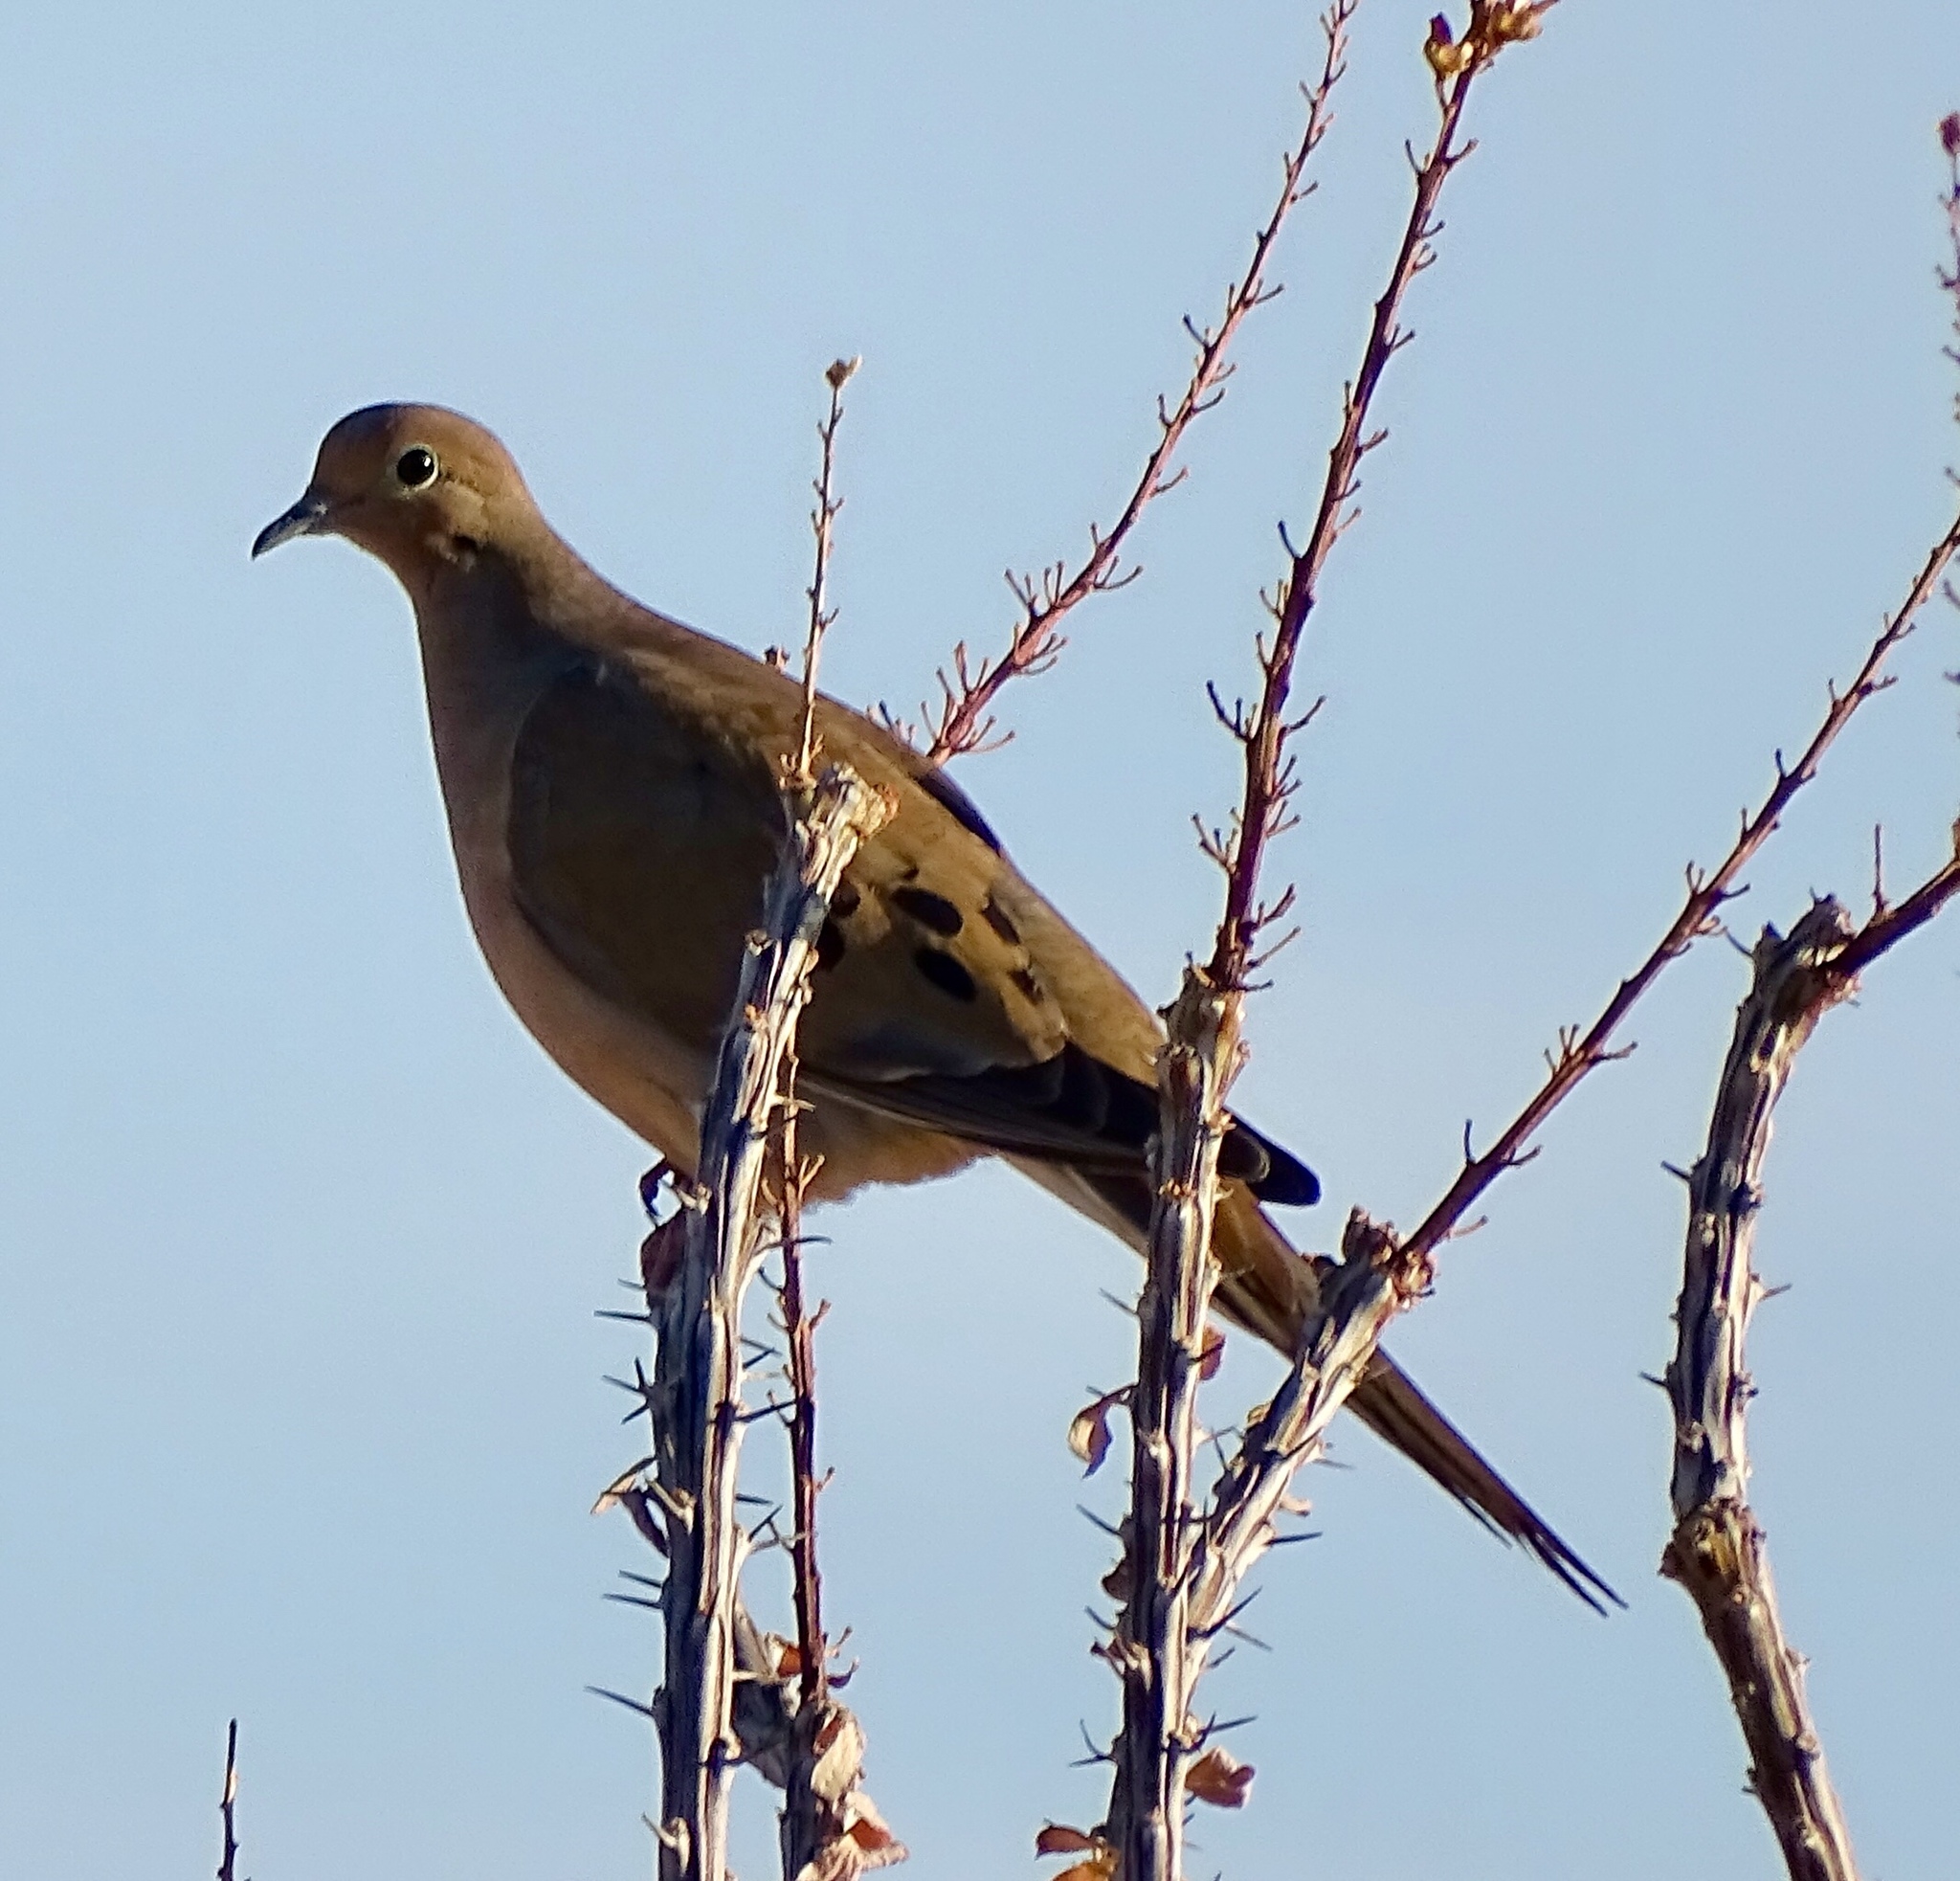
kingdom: Animalia
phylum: Chordata
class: Aves
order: Columbiformes
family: Columbidae
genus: Zenaida
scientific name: Zenaida macroura
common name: Mourning dove
